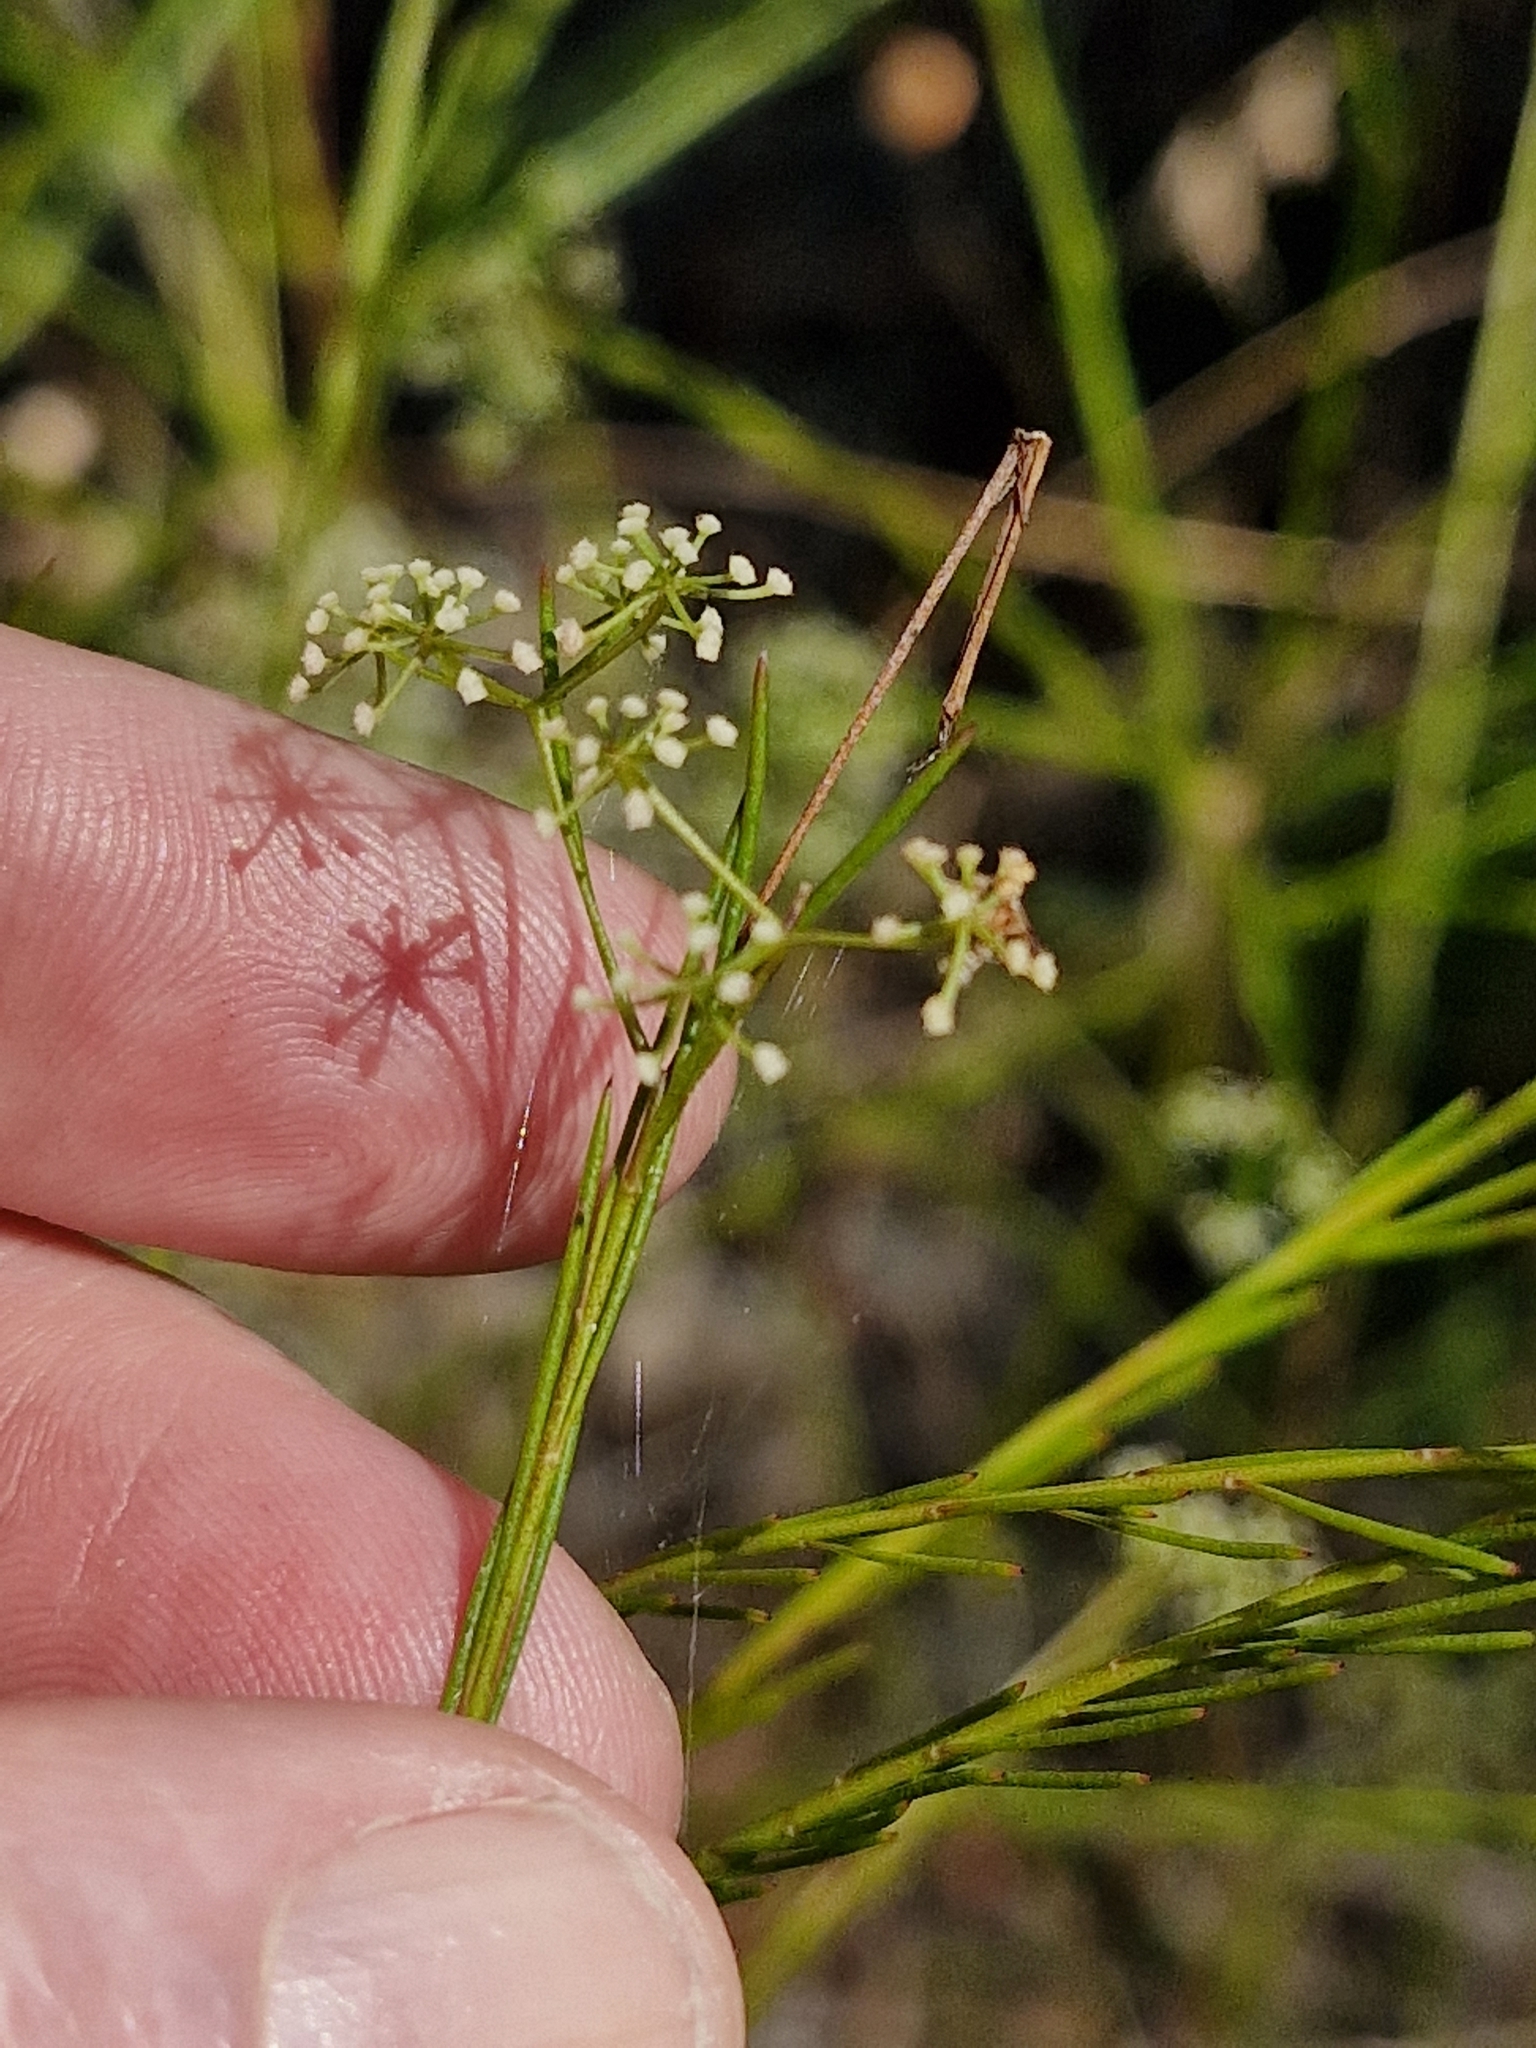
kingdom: Plantae
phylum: Tracheophyta
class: Magnoliopsida
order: Apiales
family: Apiaceae
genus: Platysace
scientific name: Platysace linearifolia
